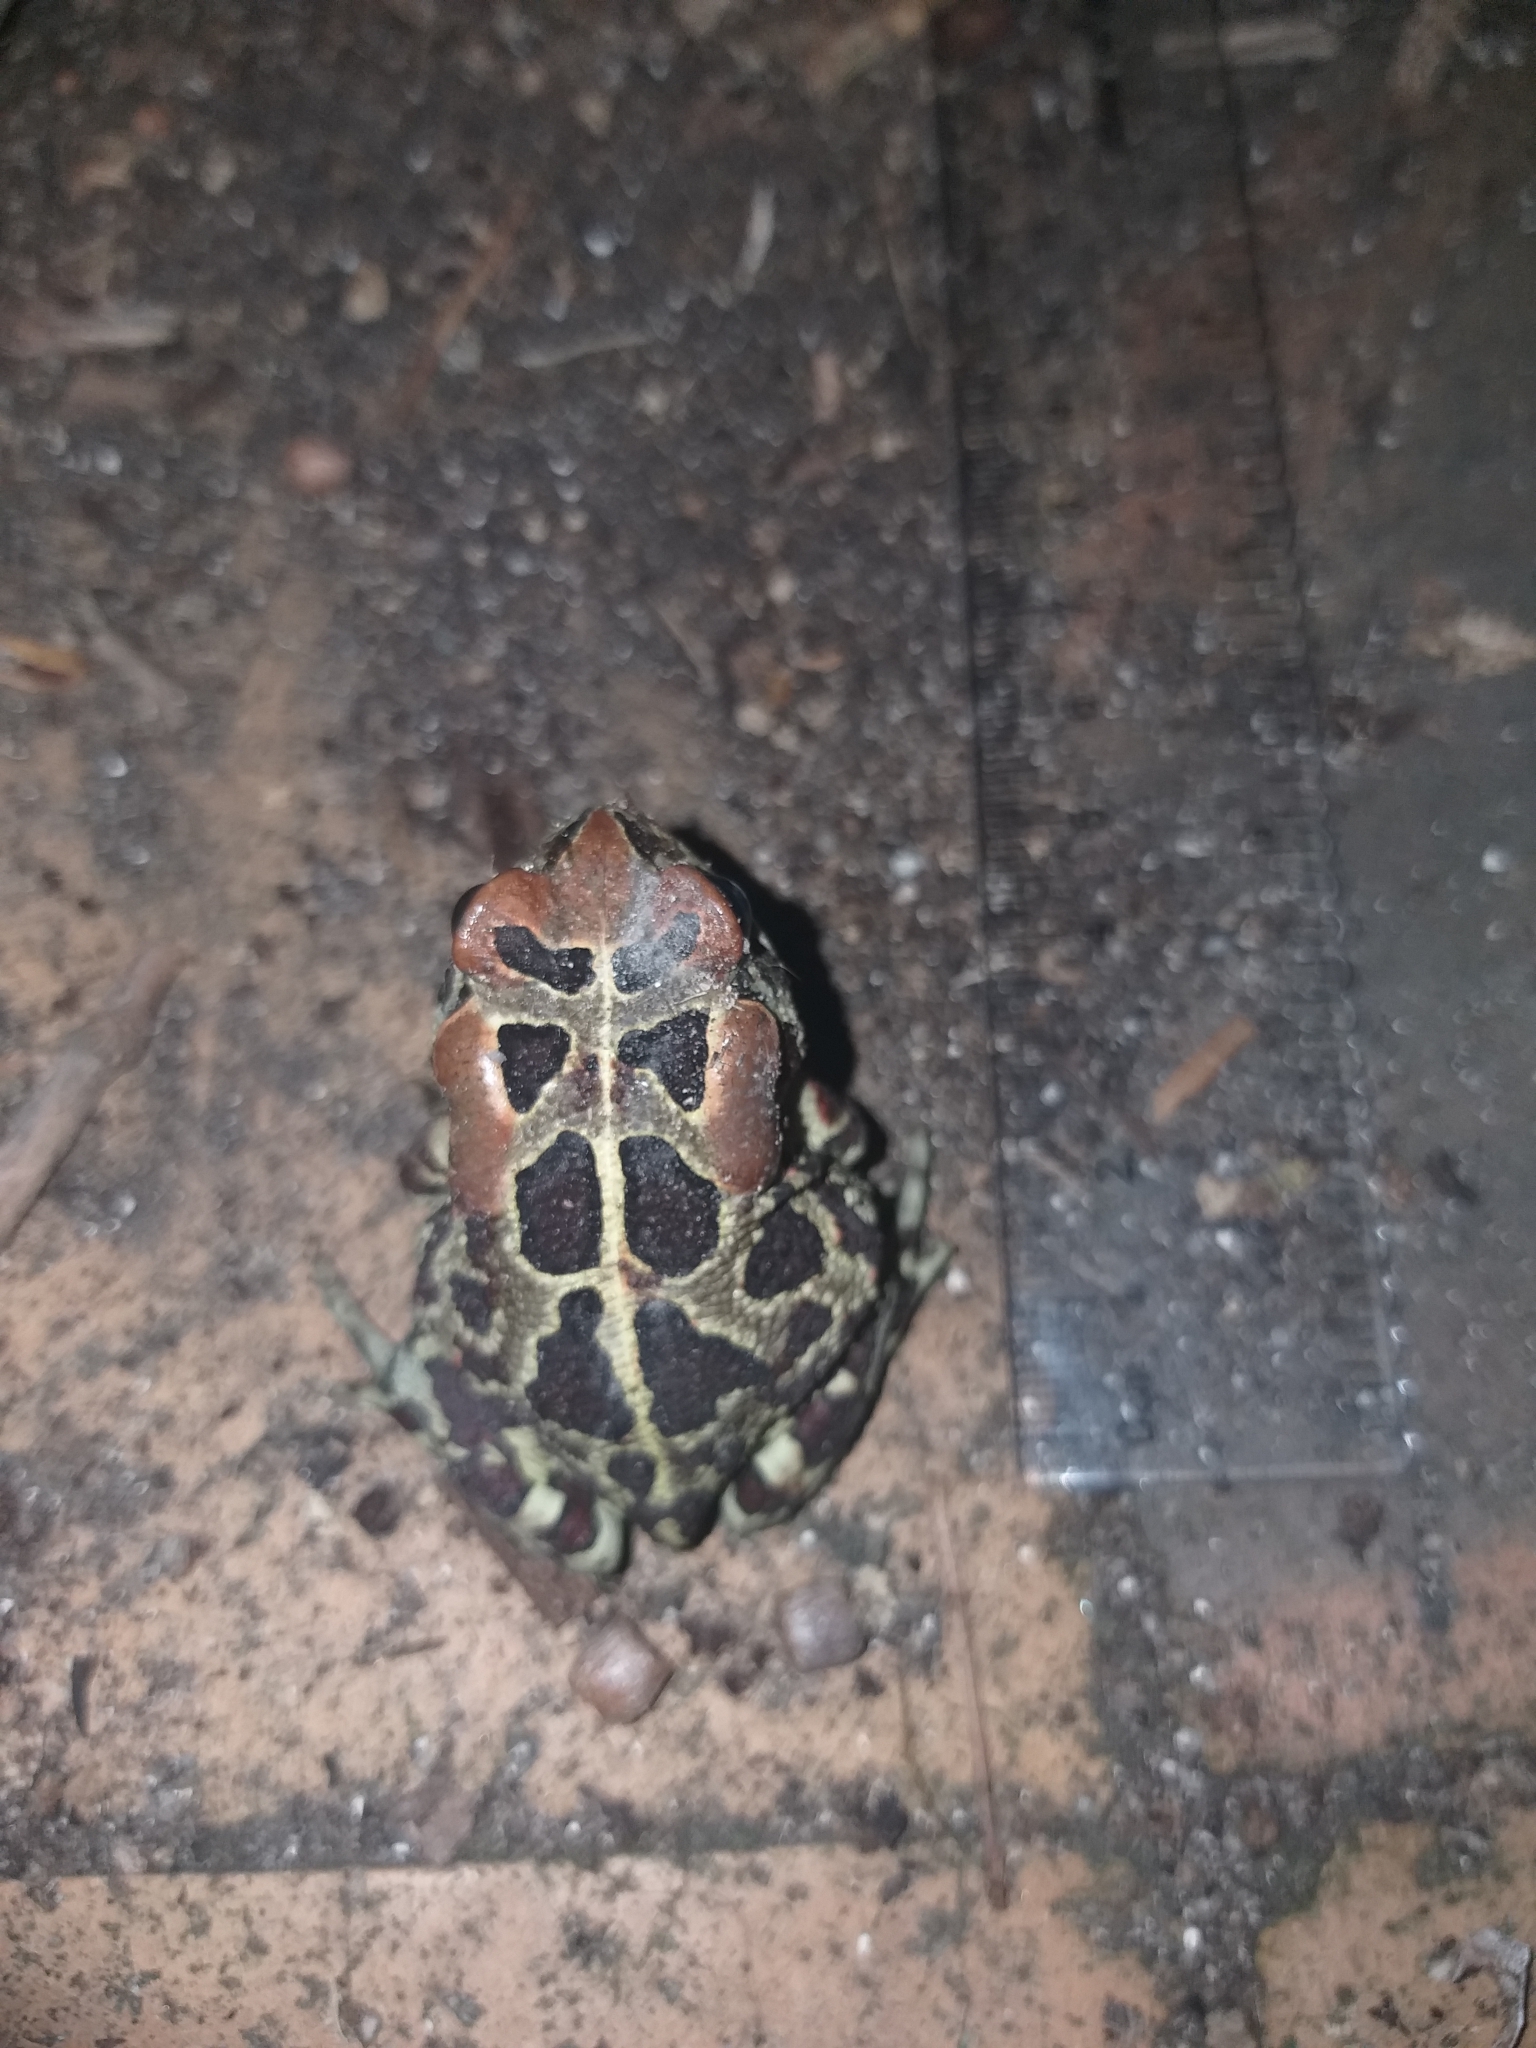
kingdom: Animalia
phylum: Chordata
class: Amphibia
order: Anura
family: Bufonidae
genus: Sclerophrys
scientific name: Sclerophrys pantherina
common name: Panther toad
